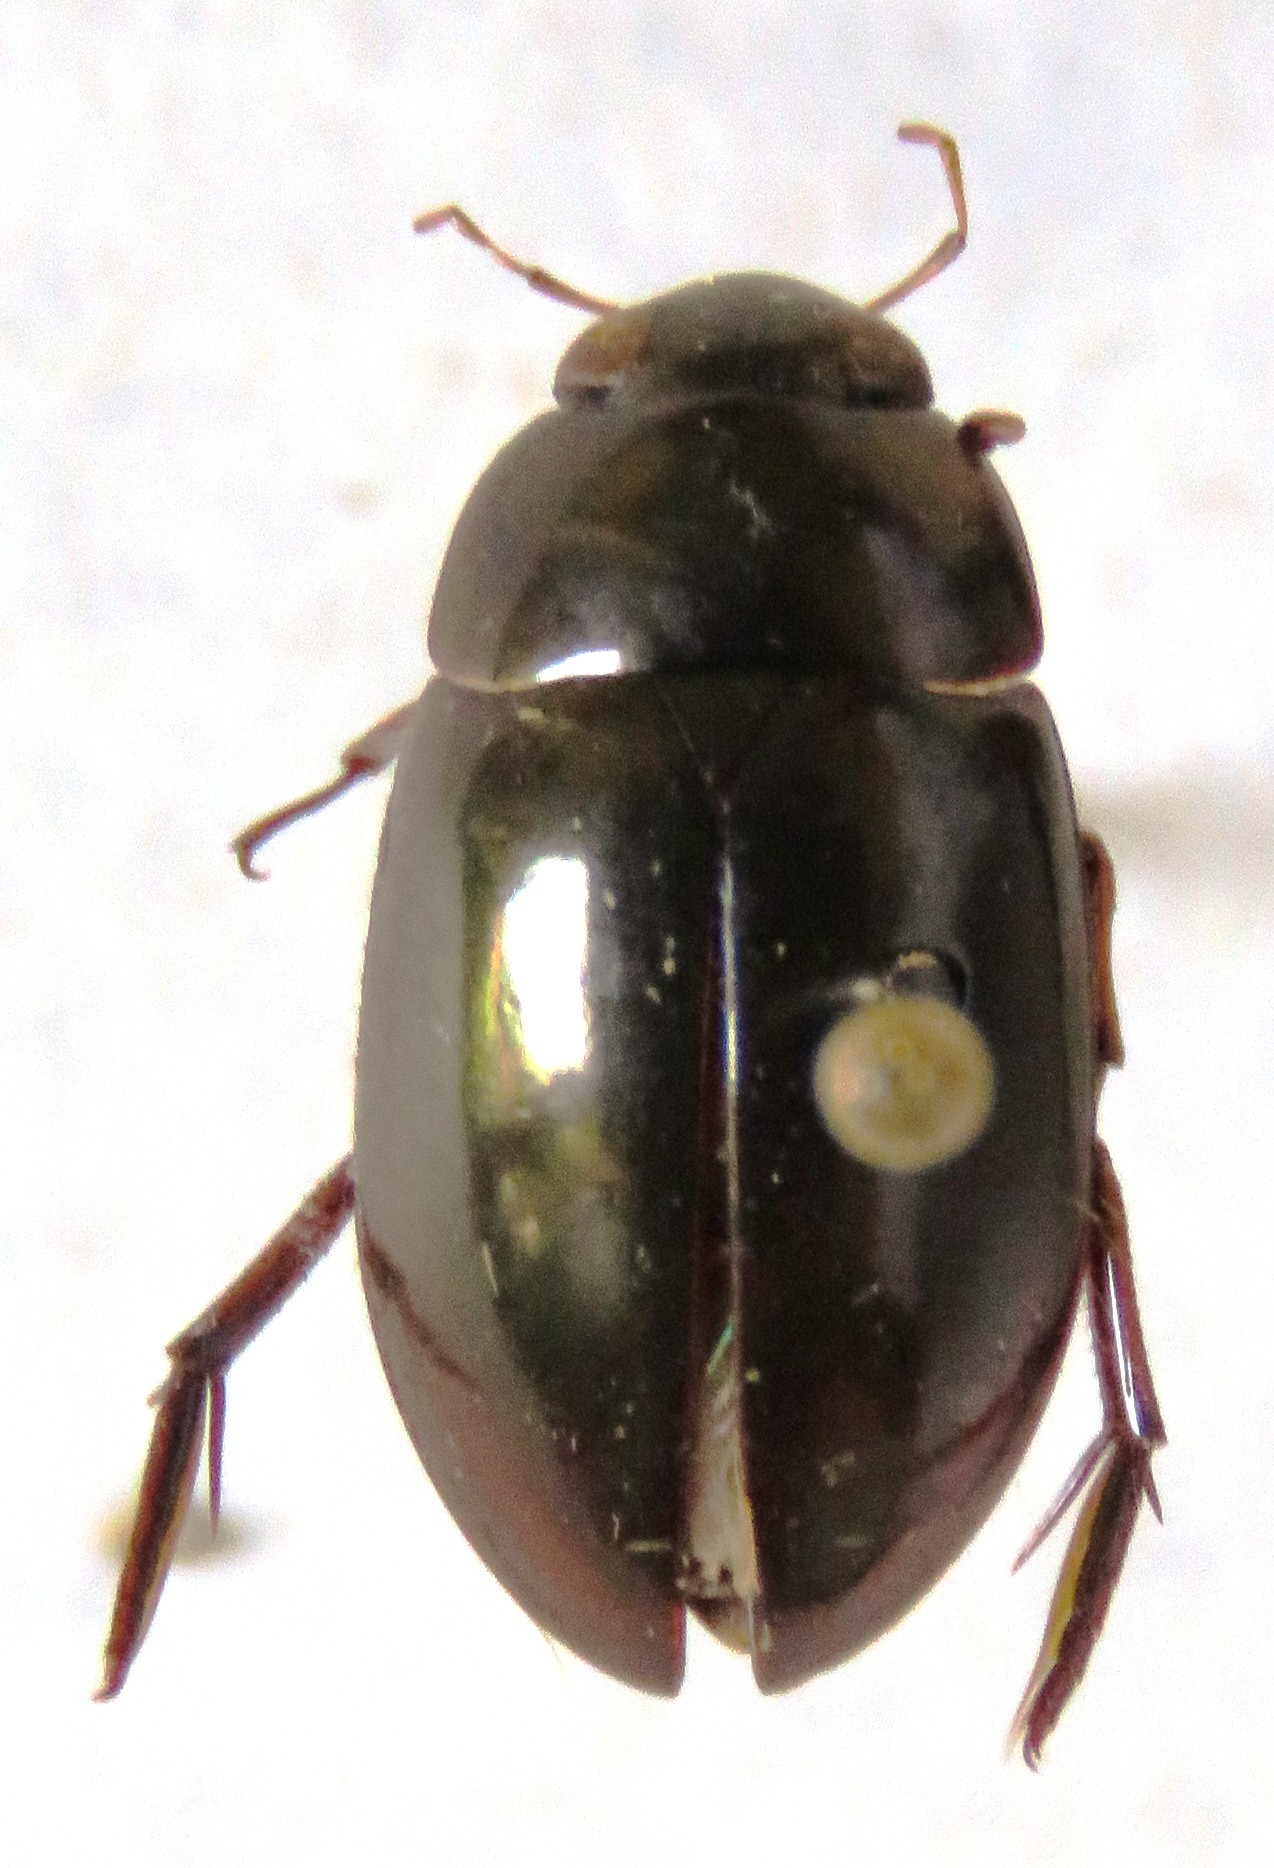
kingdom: Animalia
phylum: Arthropoda
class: Insecta
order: Coleoptera
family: Hydrophilidae
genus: Tropisternus
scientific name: Tropisternus
